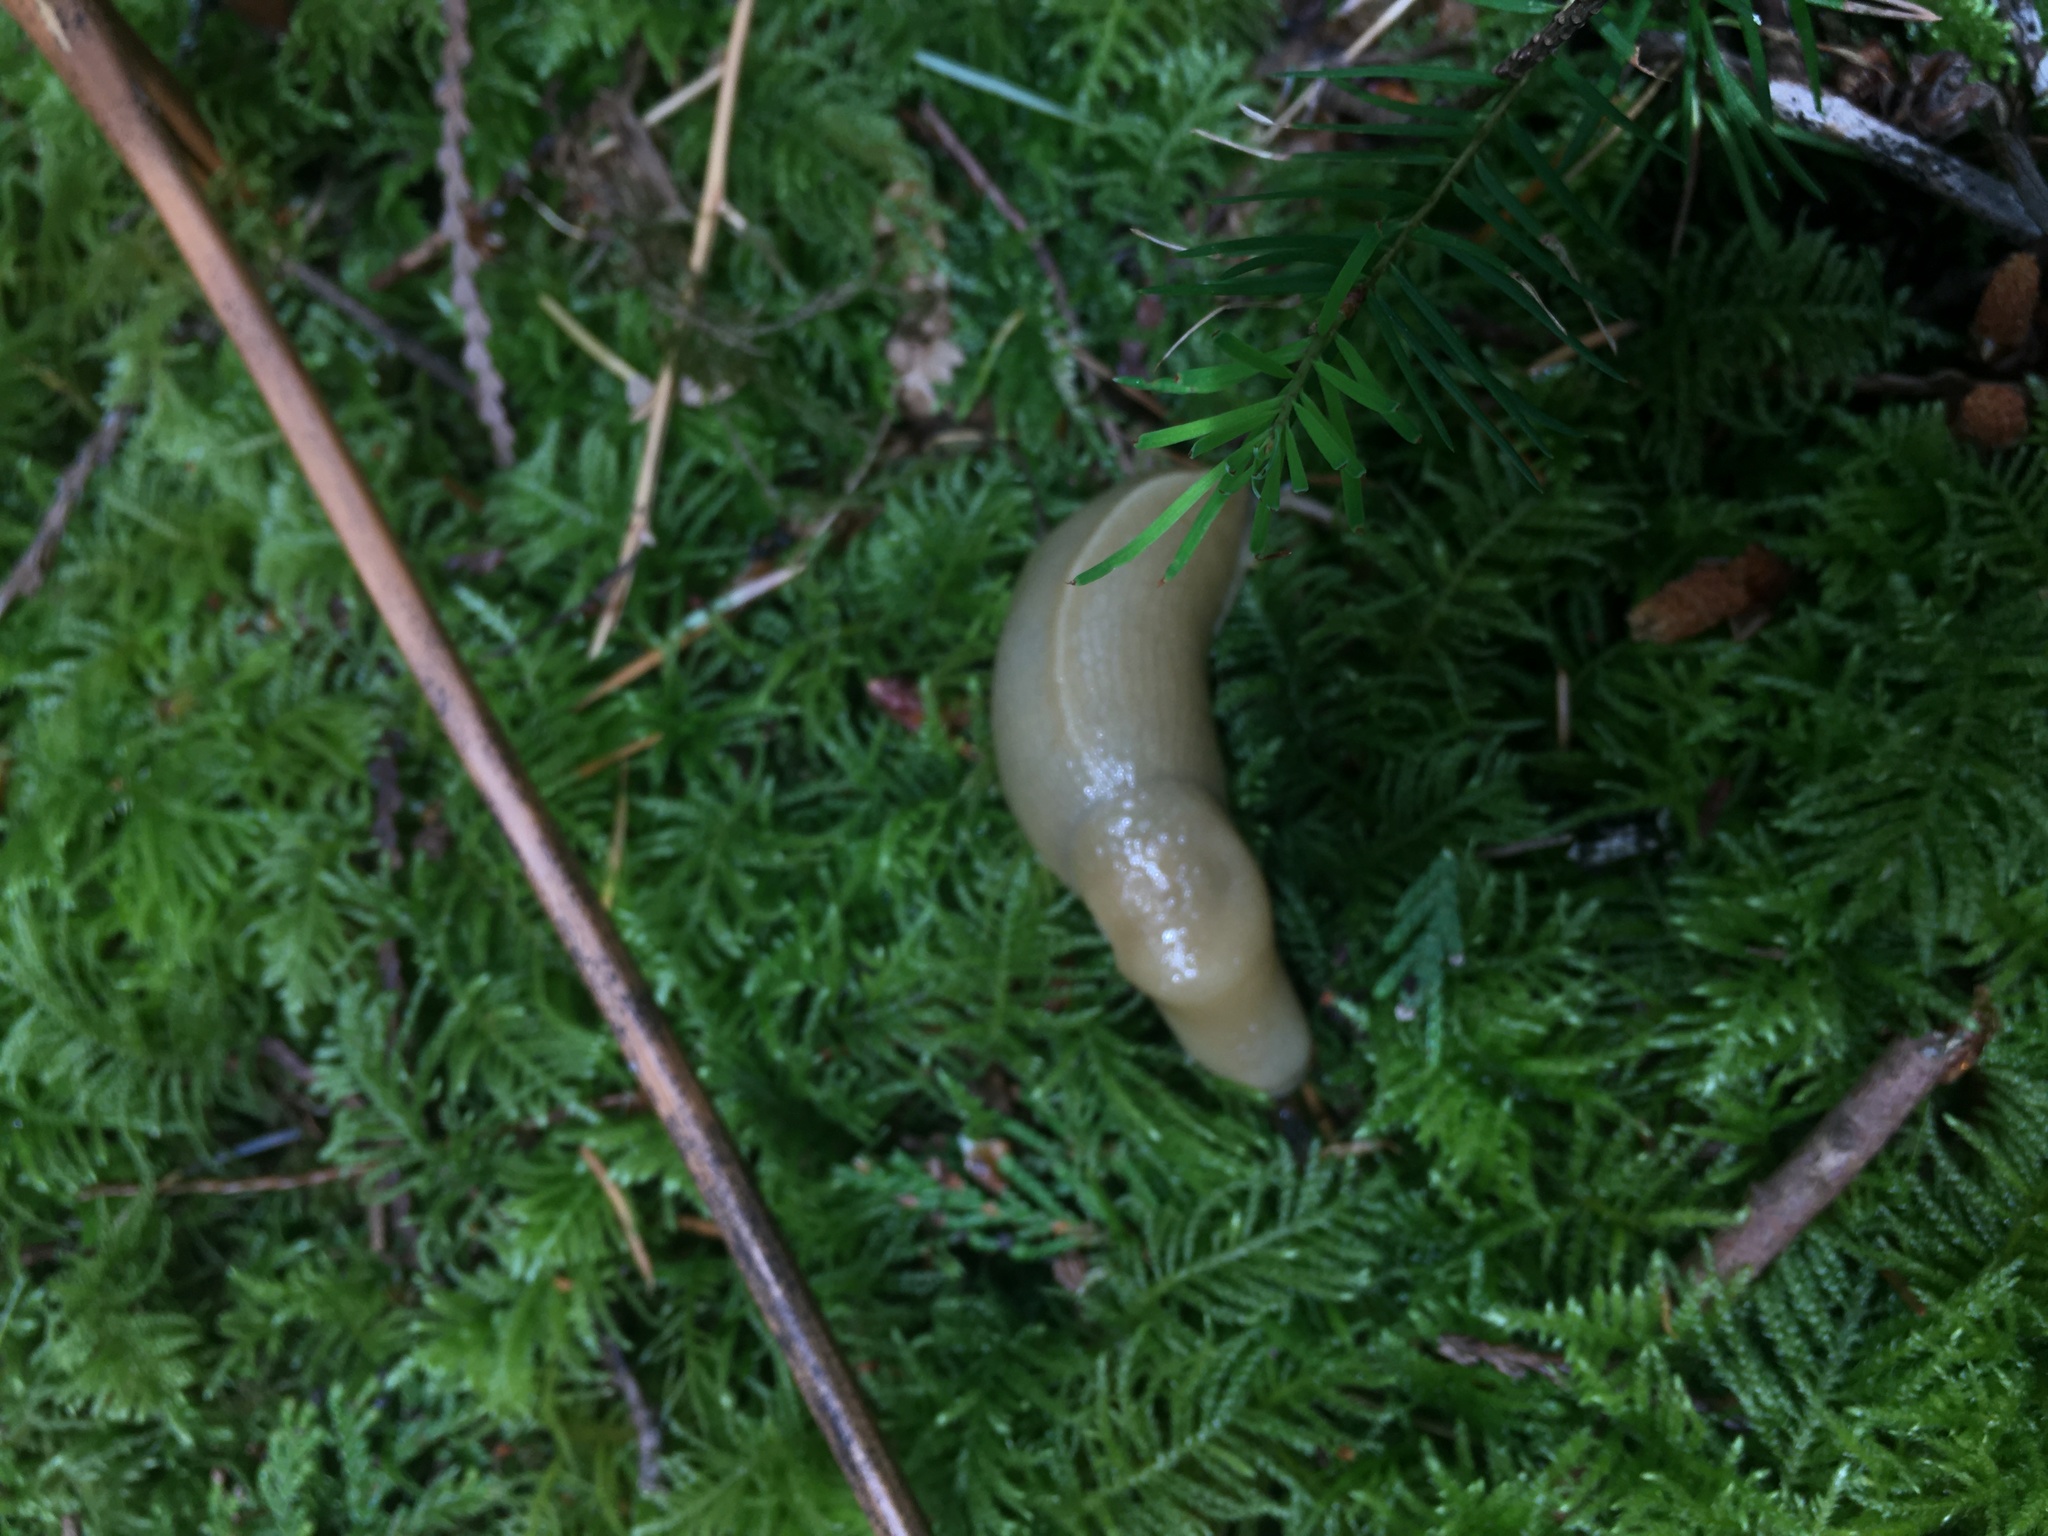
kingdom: Animalia
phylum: Mollusca
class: Gastropoda
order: Stylommatophora
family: Ariolimacidae
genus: Ariolimax
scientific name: Ariolimax columbianus
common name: Pacific banana slug
